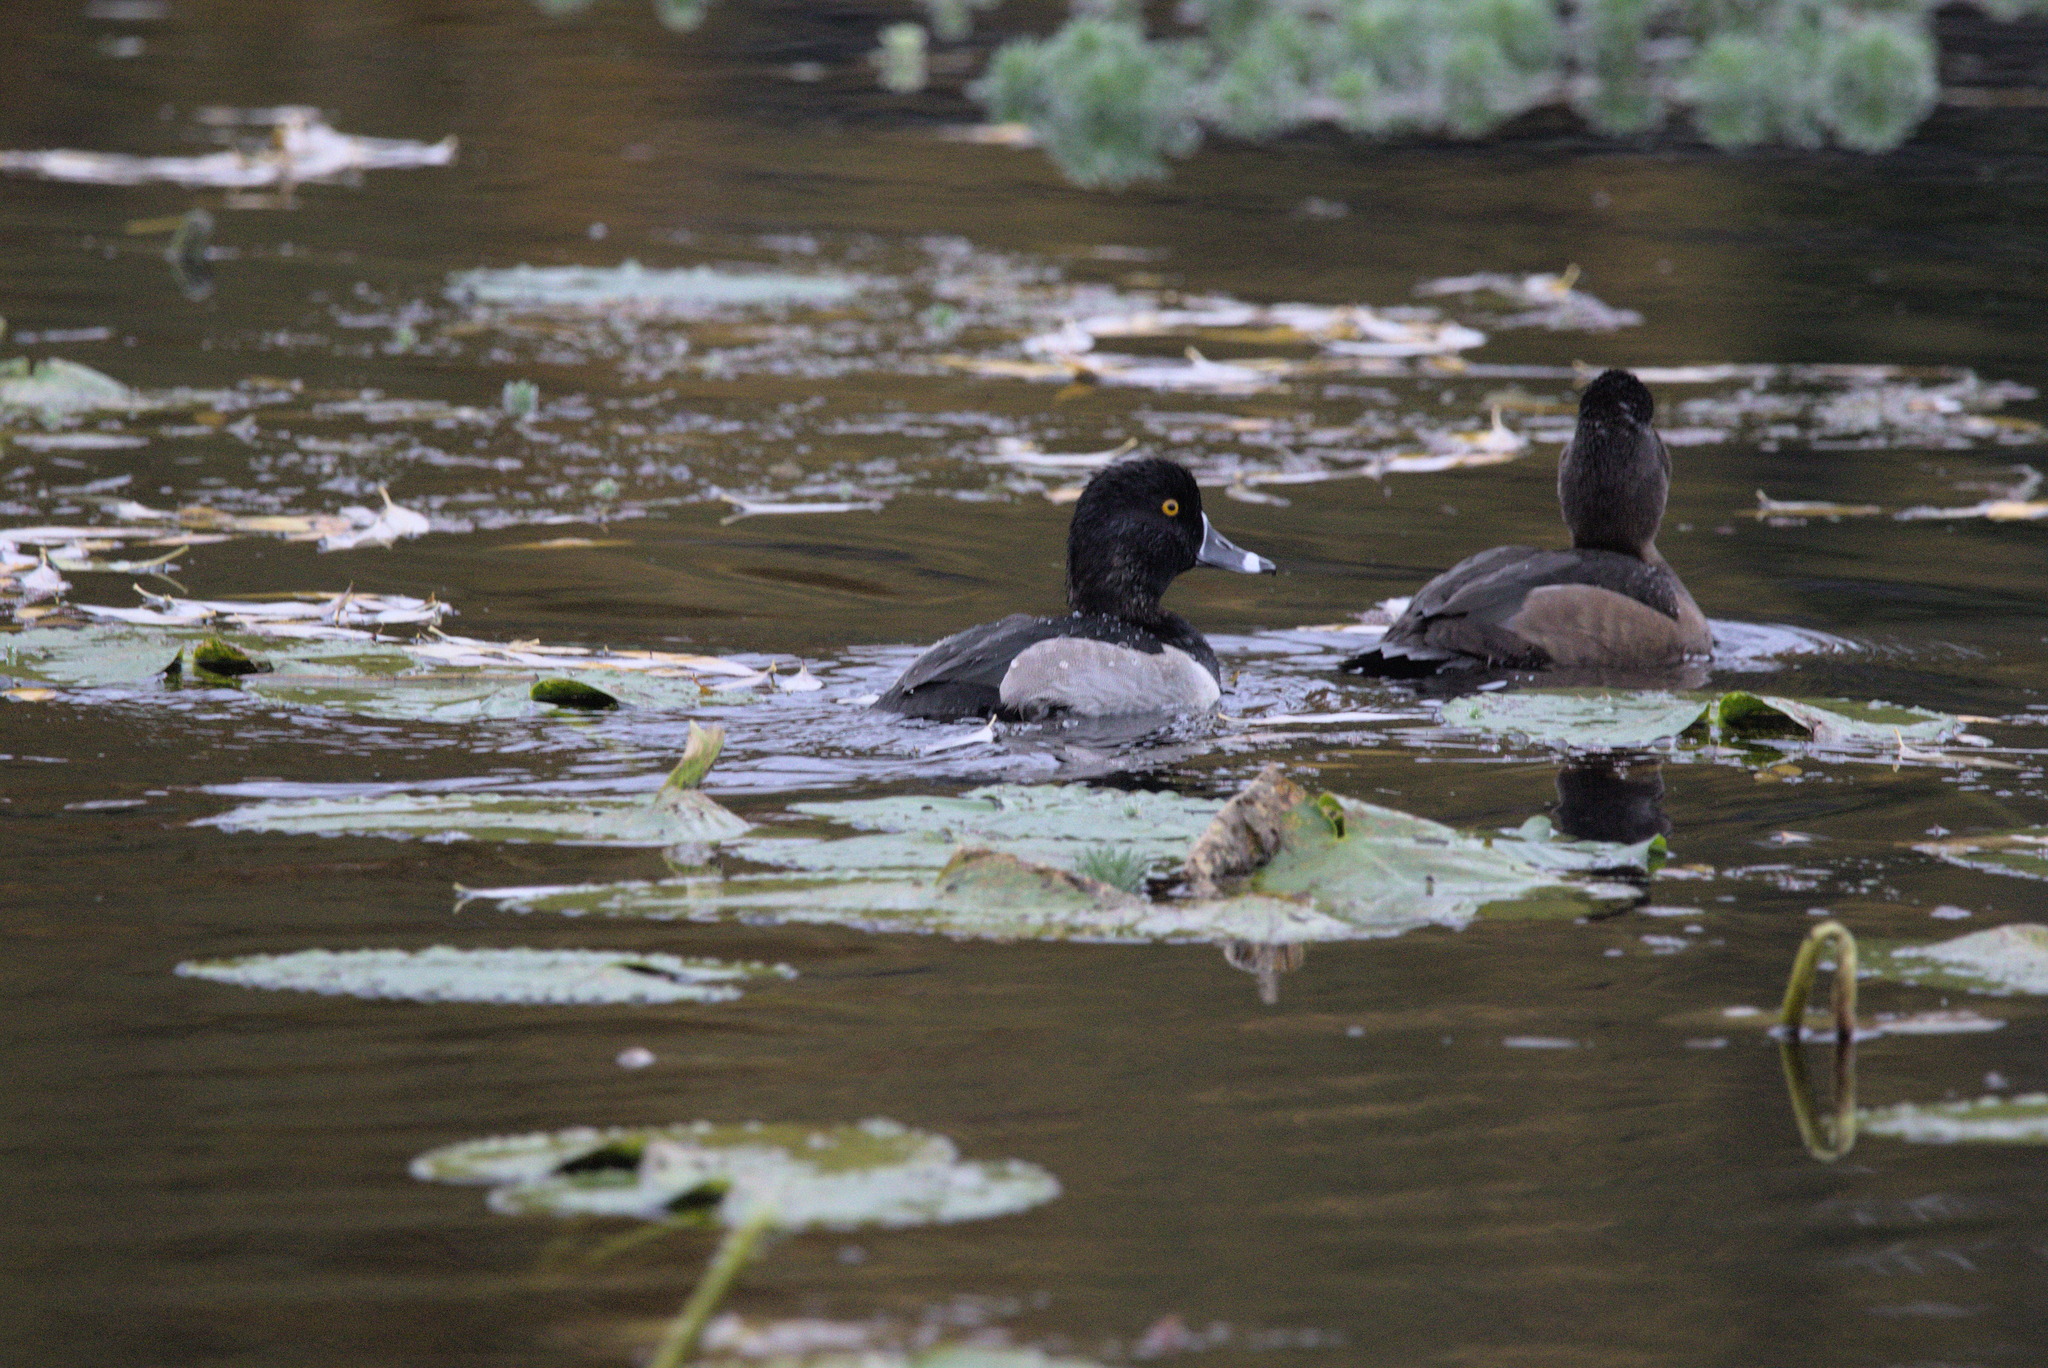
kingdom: Animalia
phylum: Chordata
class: Aves
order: Anseriformes
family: Anatidae
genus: Aythya
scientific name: Aythya collaris
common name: Ring-necked duck
